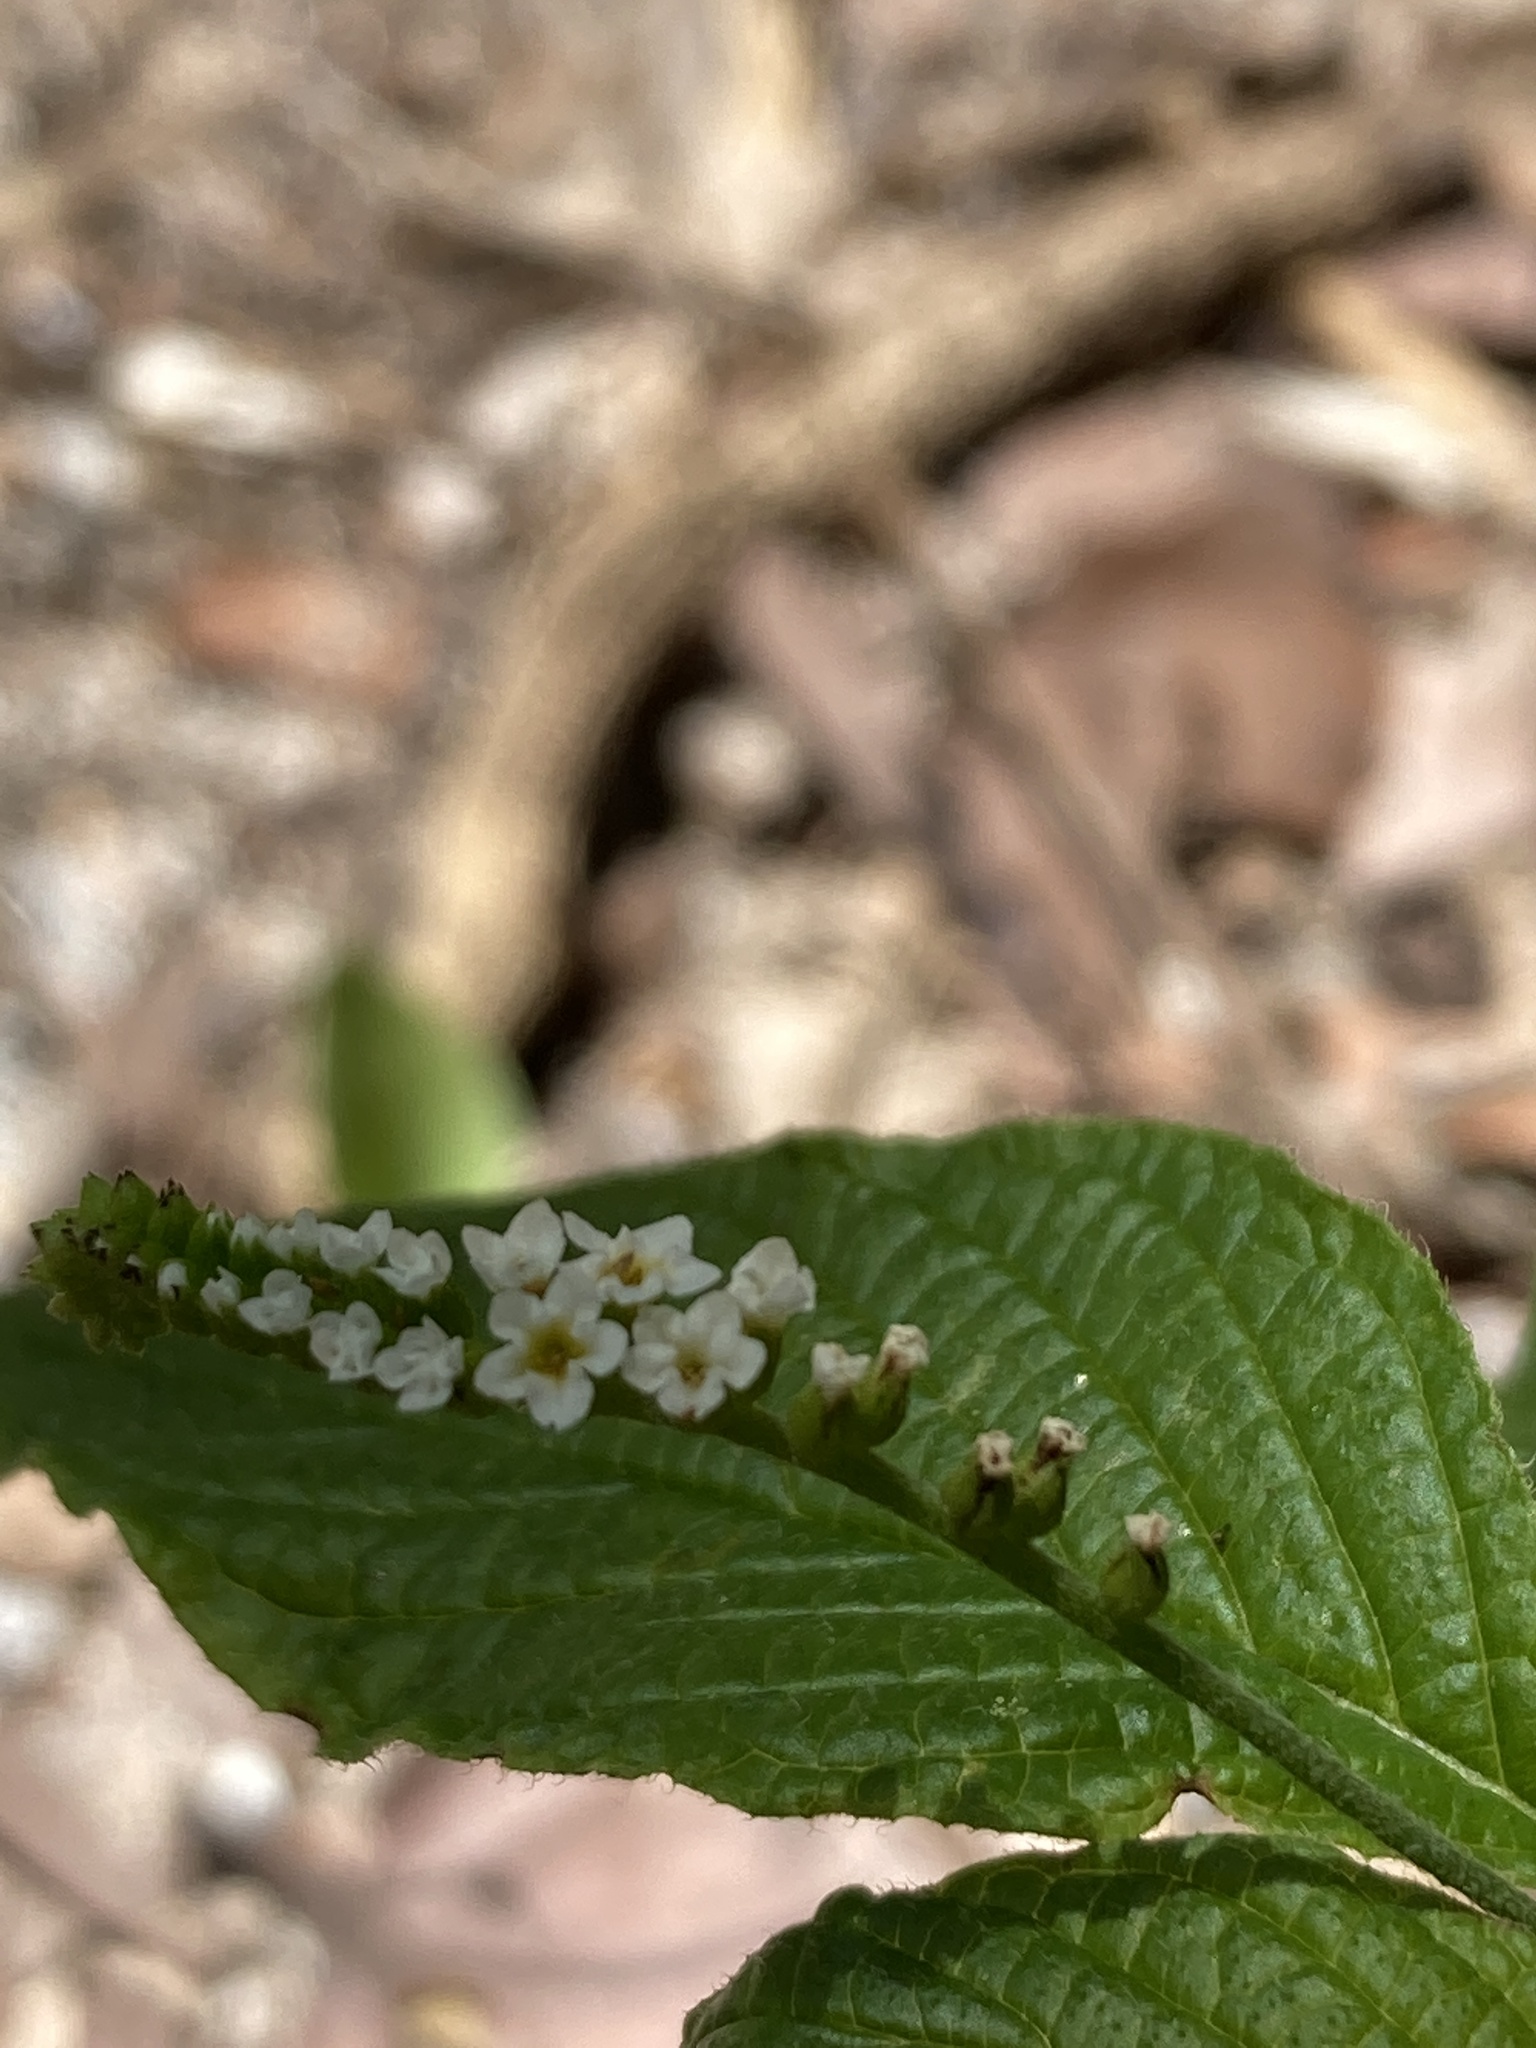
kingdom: Plantae
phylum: Tracheophyta
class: Magnoliopsida
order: Boraginales
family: Heliotropiaceae
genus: Heliotropium
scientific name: Heliotropium angiospermum
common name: Eye bright
